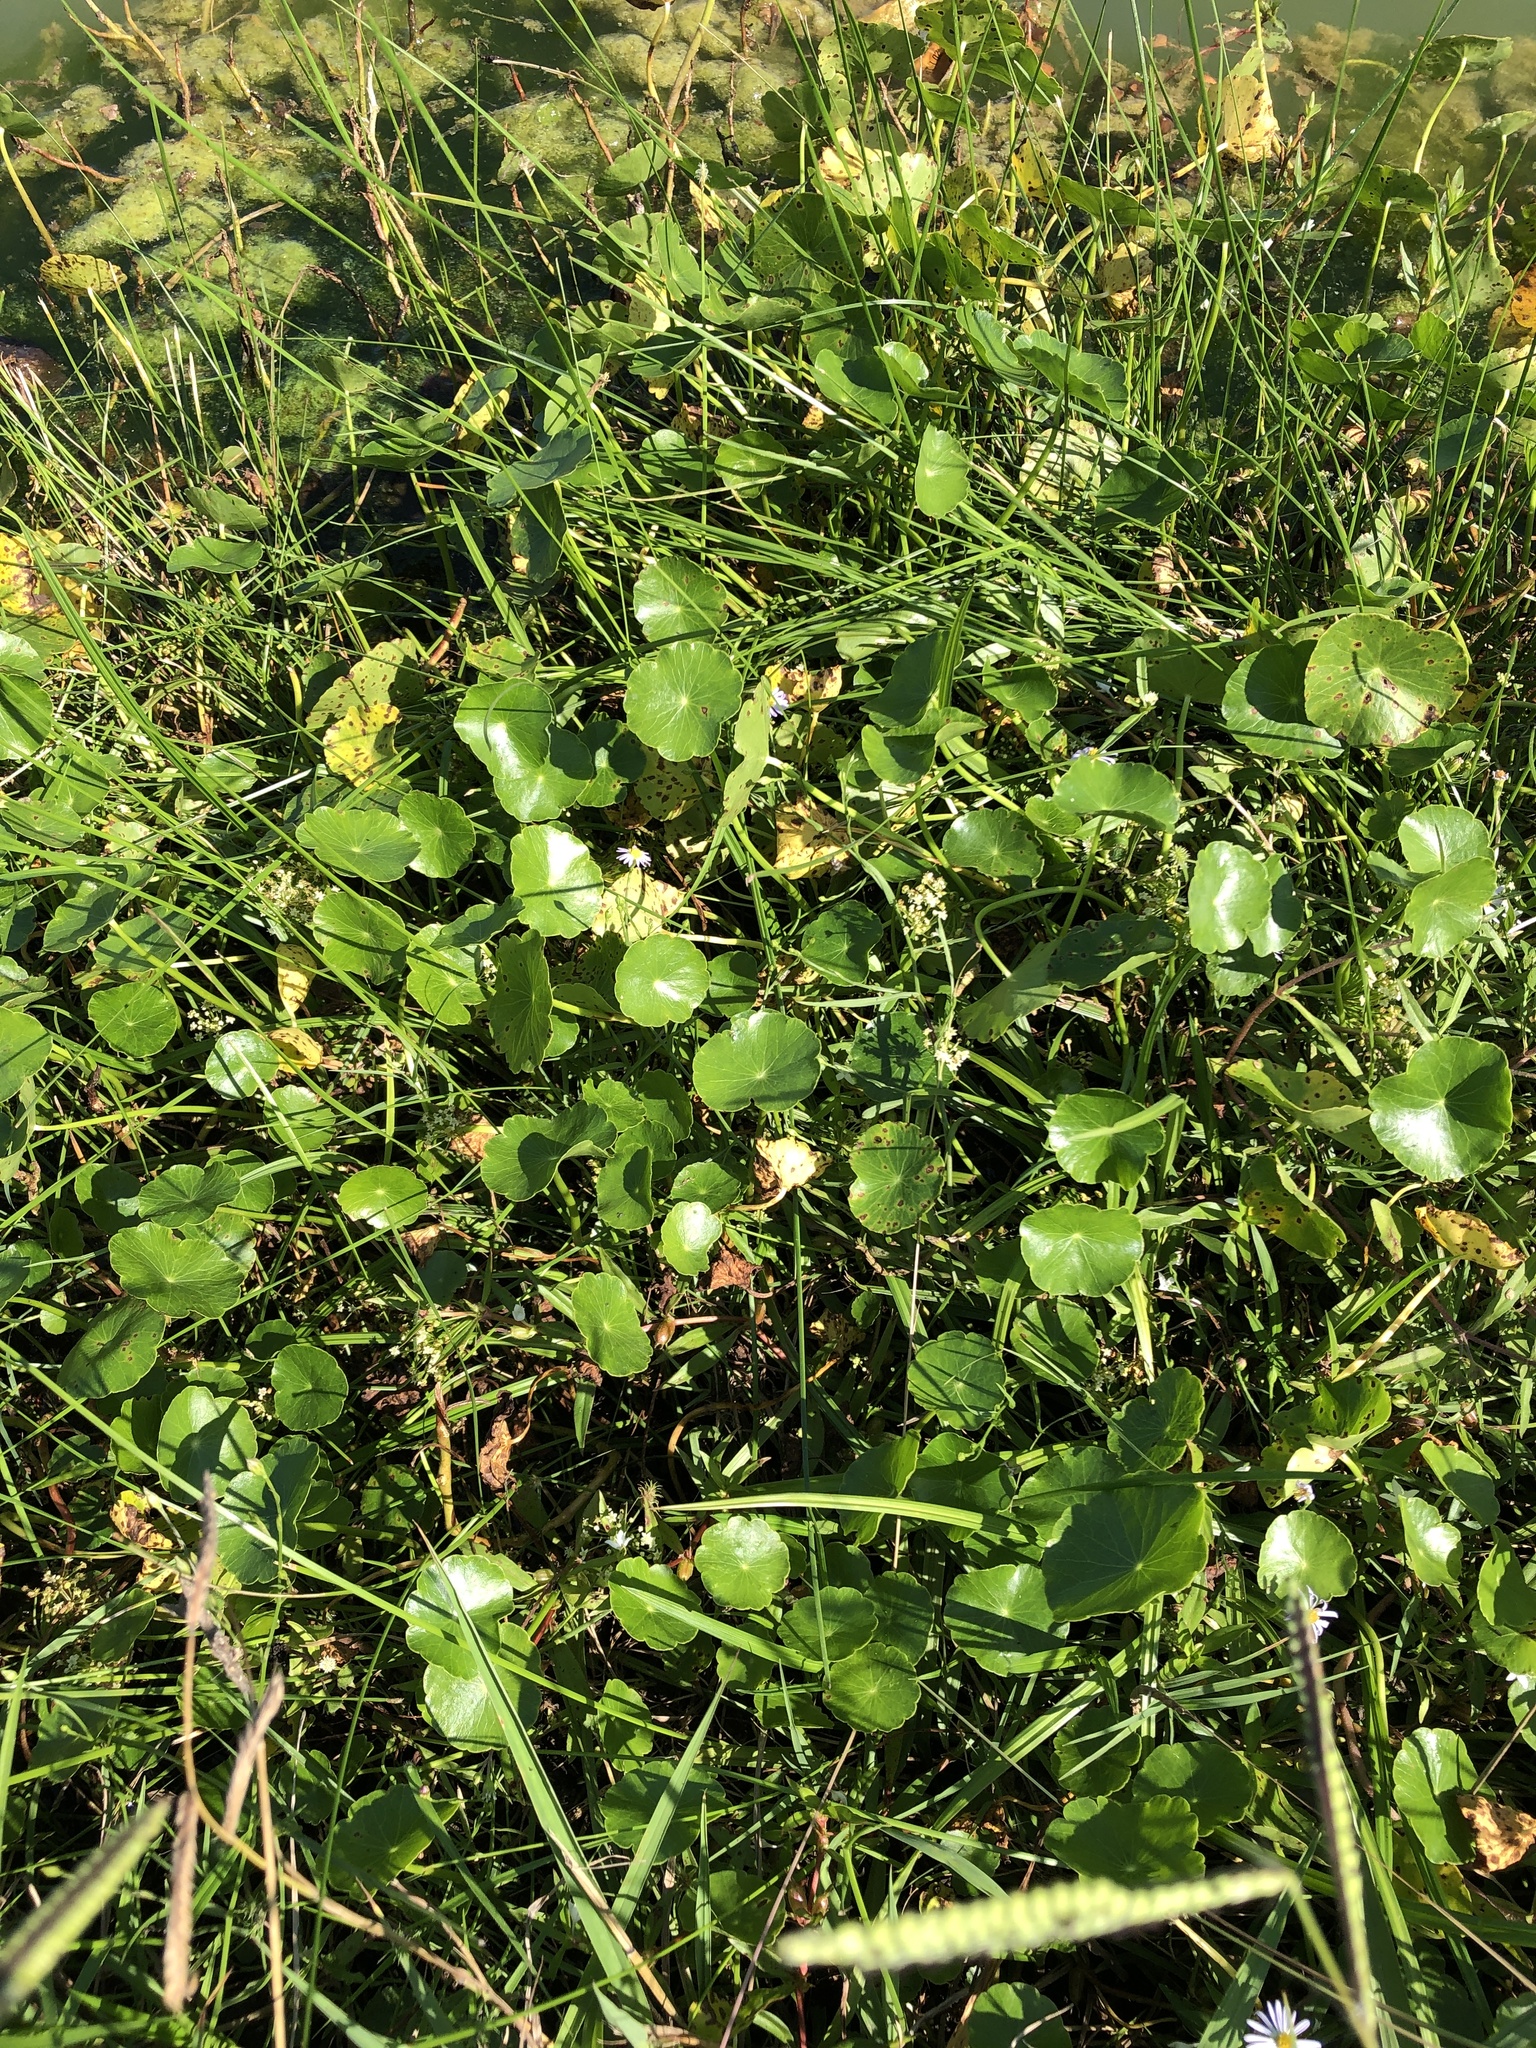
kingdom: Plantae
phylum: Tracheophyta
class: Magnoliopsida
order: Apiales
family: Araliaceae
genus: Hydrocotyle
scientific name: Hydrocotyle umbellata
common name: Water pennywort
